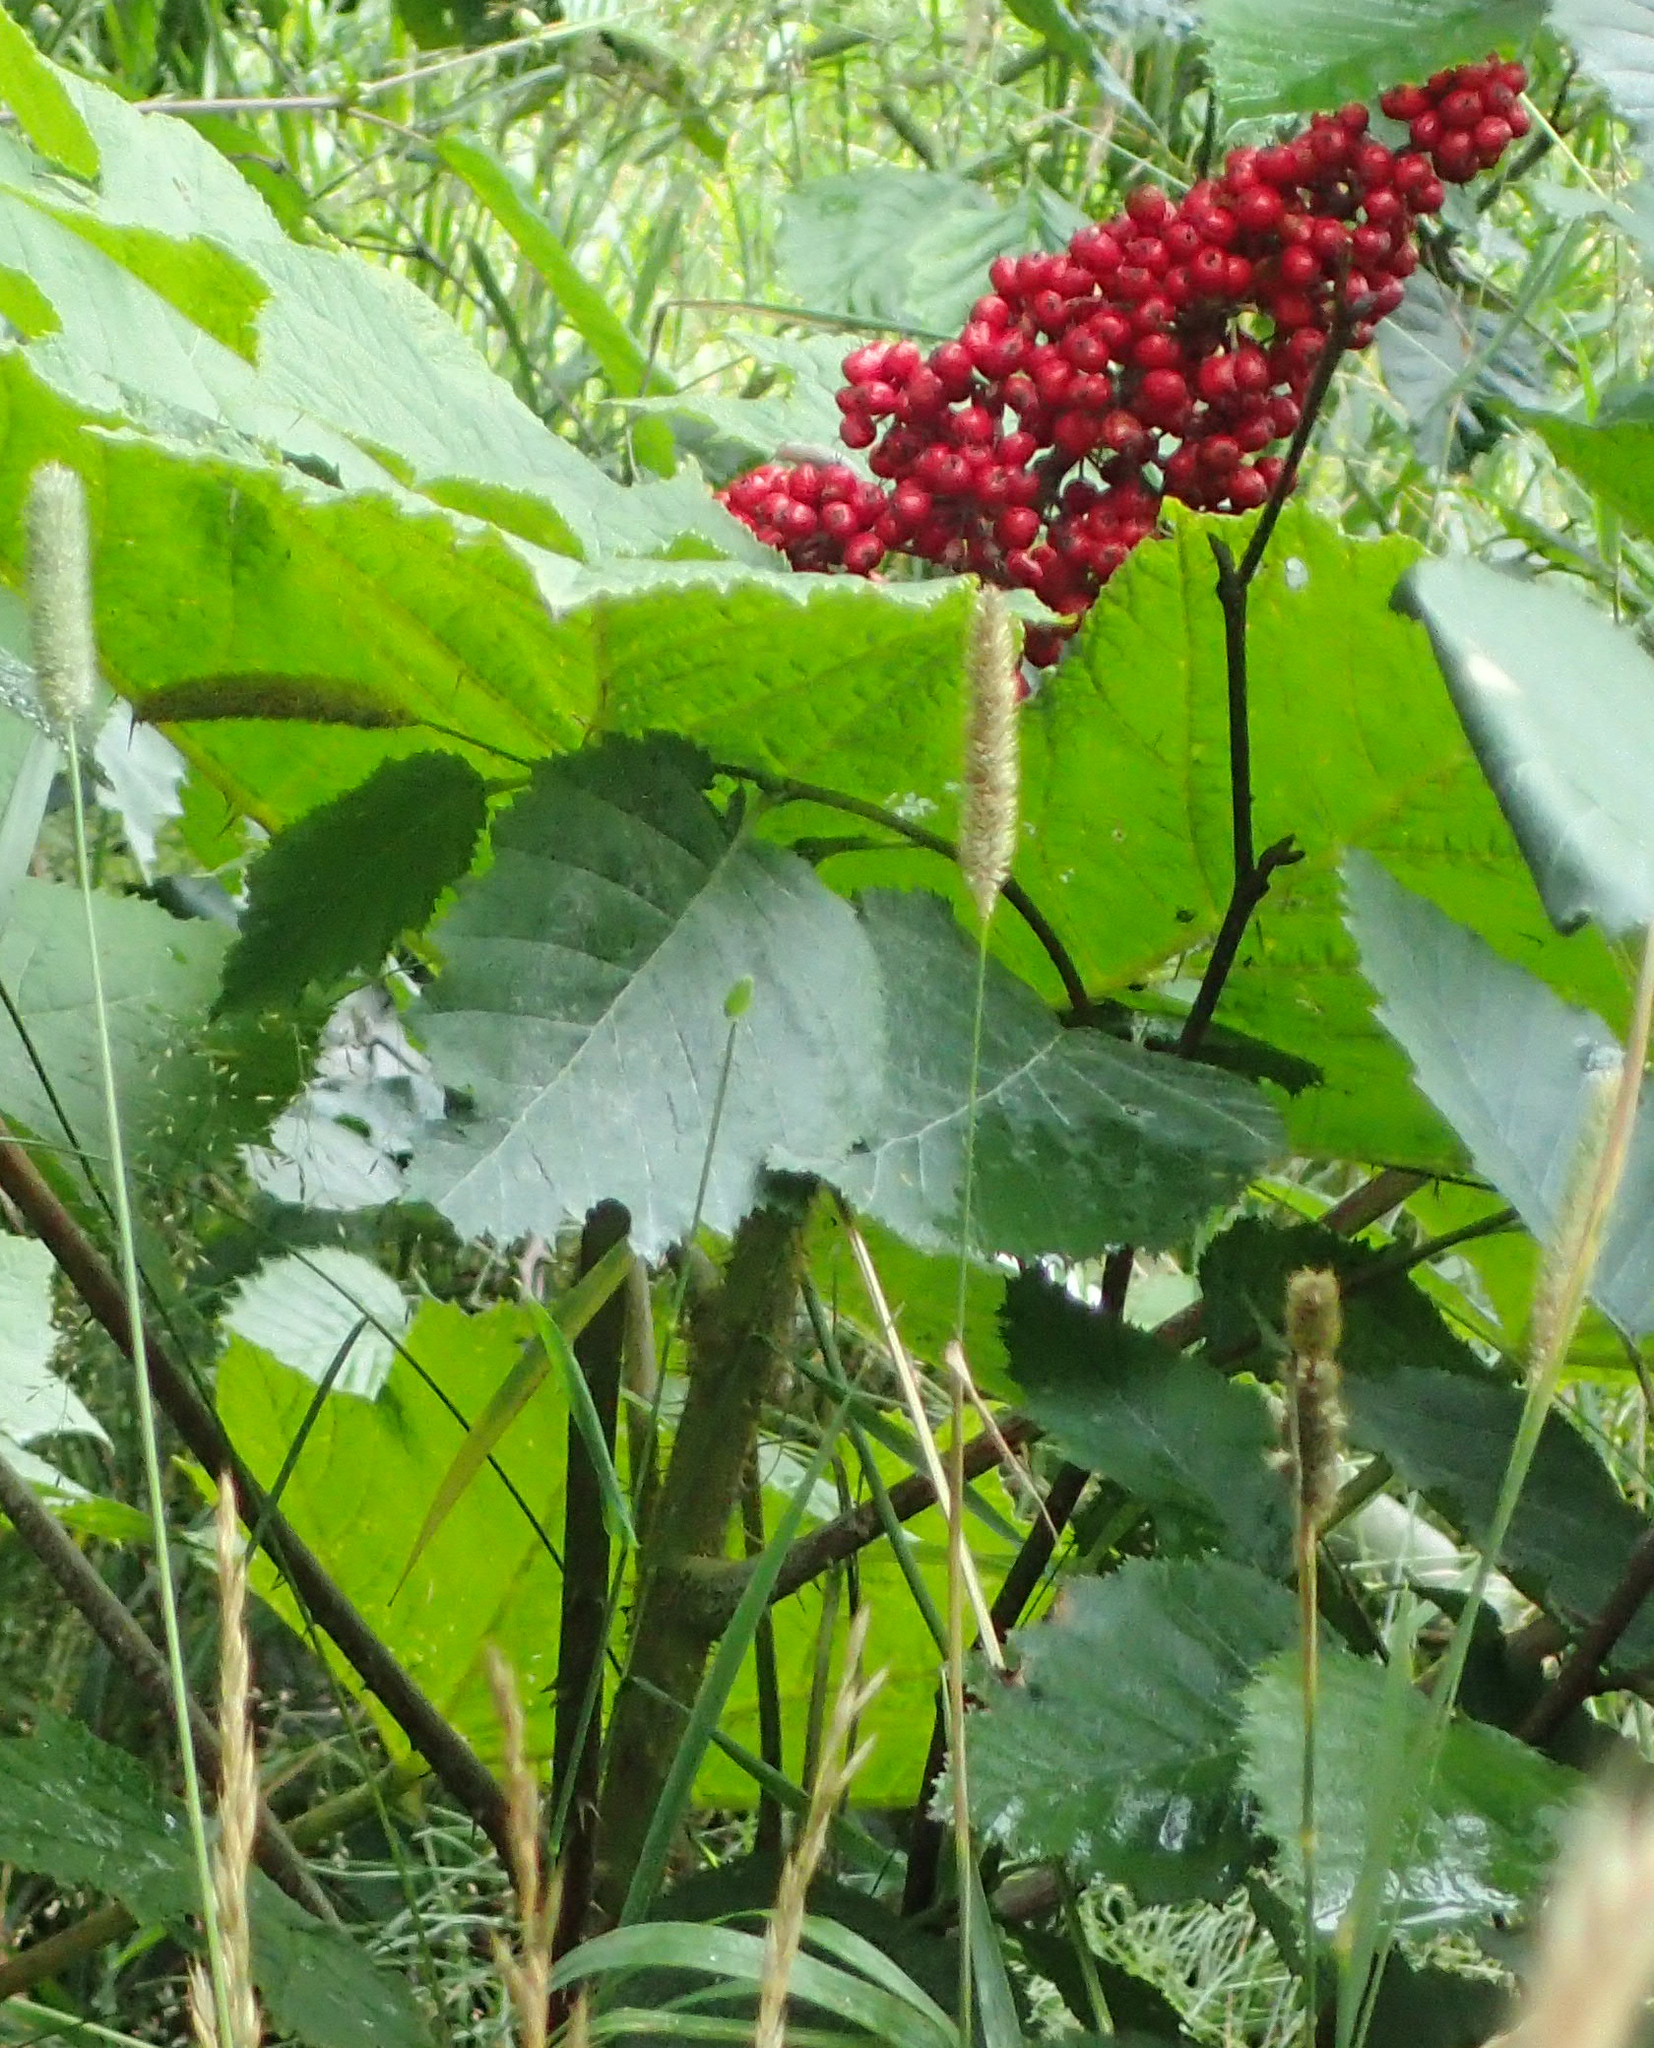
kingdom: Plantae
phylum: Tracheophyta
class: Magnoliopsida
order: Apiales
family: Araliaceae
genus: Oplopanax
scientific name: Oplopanax horridus
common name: Devil's walking-stick
